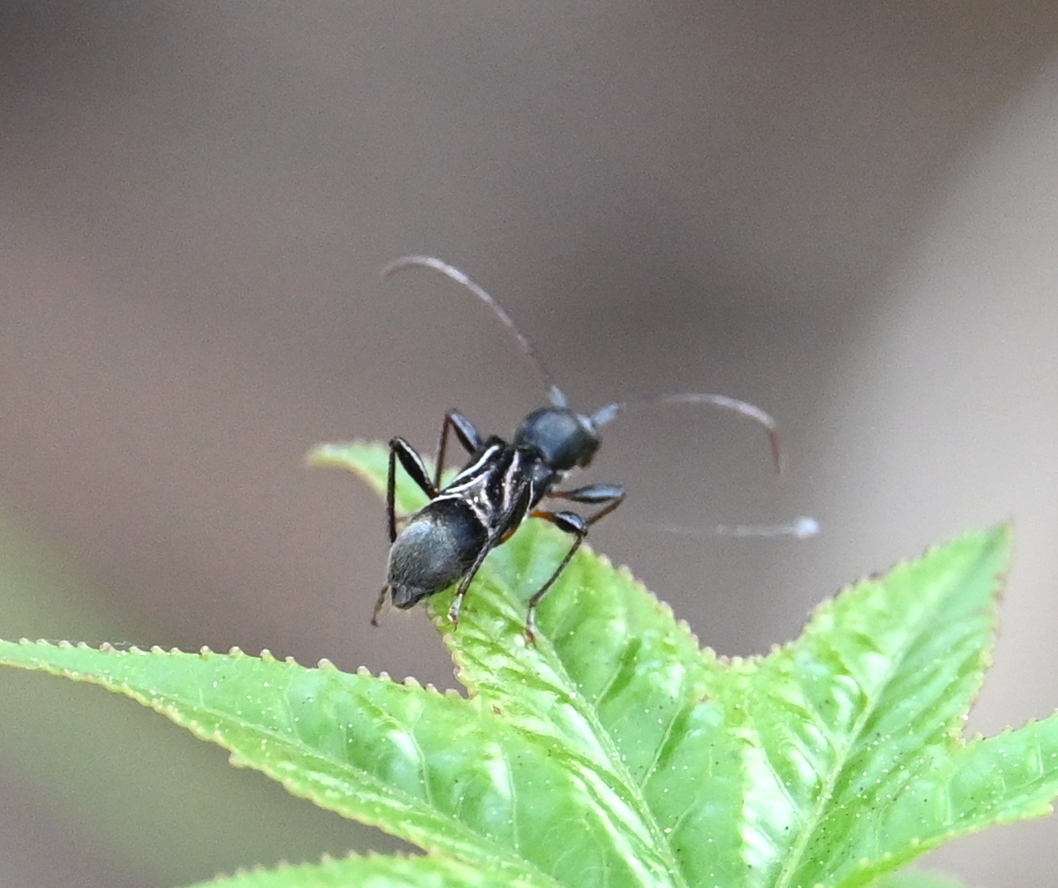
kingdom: Animalia
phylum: Arthropoda
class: Insecta
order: Coleoptera
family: Cerambycidae
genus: Cyrtophorus
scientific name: Cyrtophorus verrucosus
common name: Ant-like longhorn beetle
